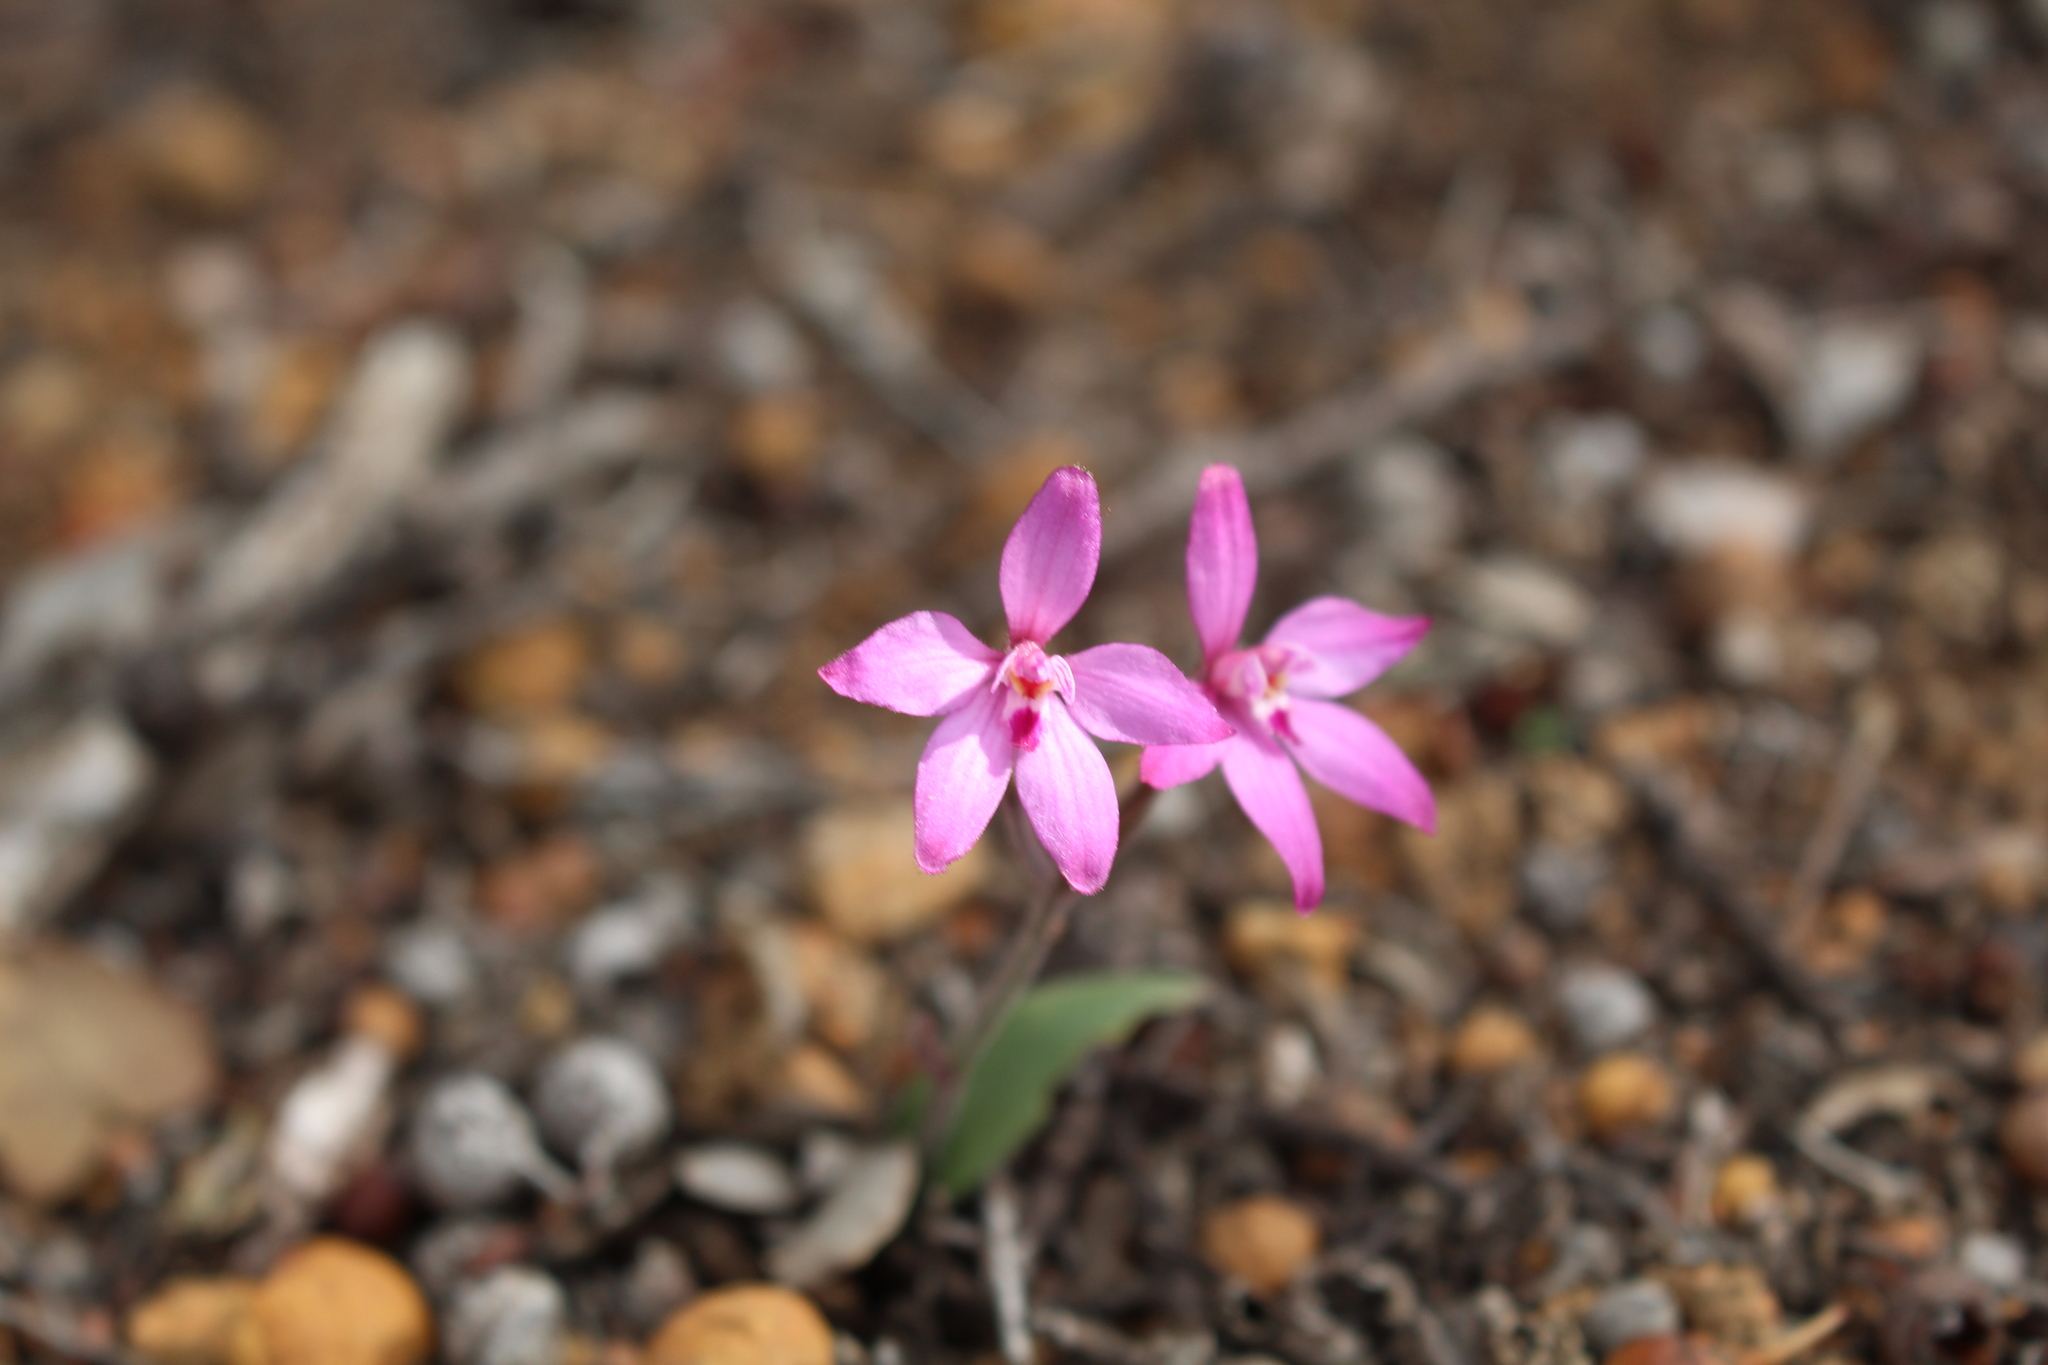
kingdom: Plantae
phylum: Tracheophyta
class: Liliopsida
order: Asparagales
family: Orchidaceae
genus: Caladenia
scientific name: Caladenia reptans
